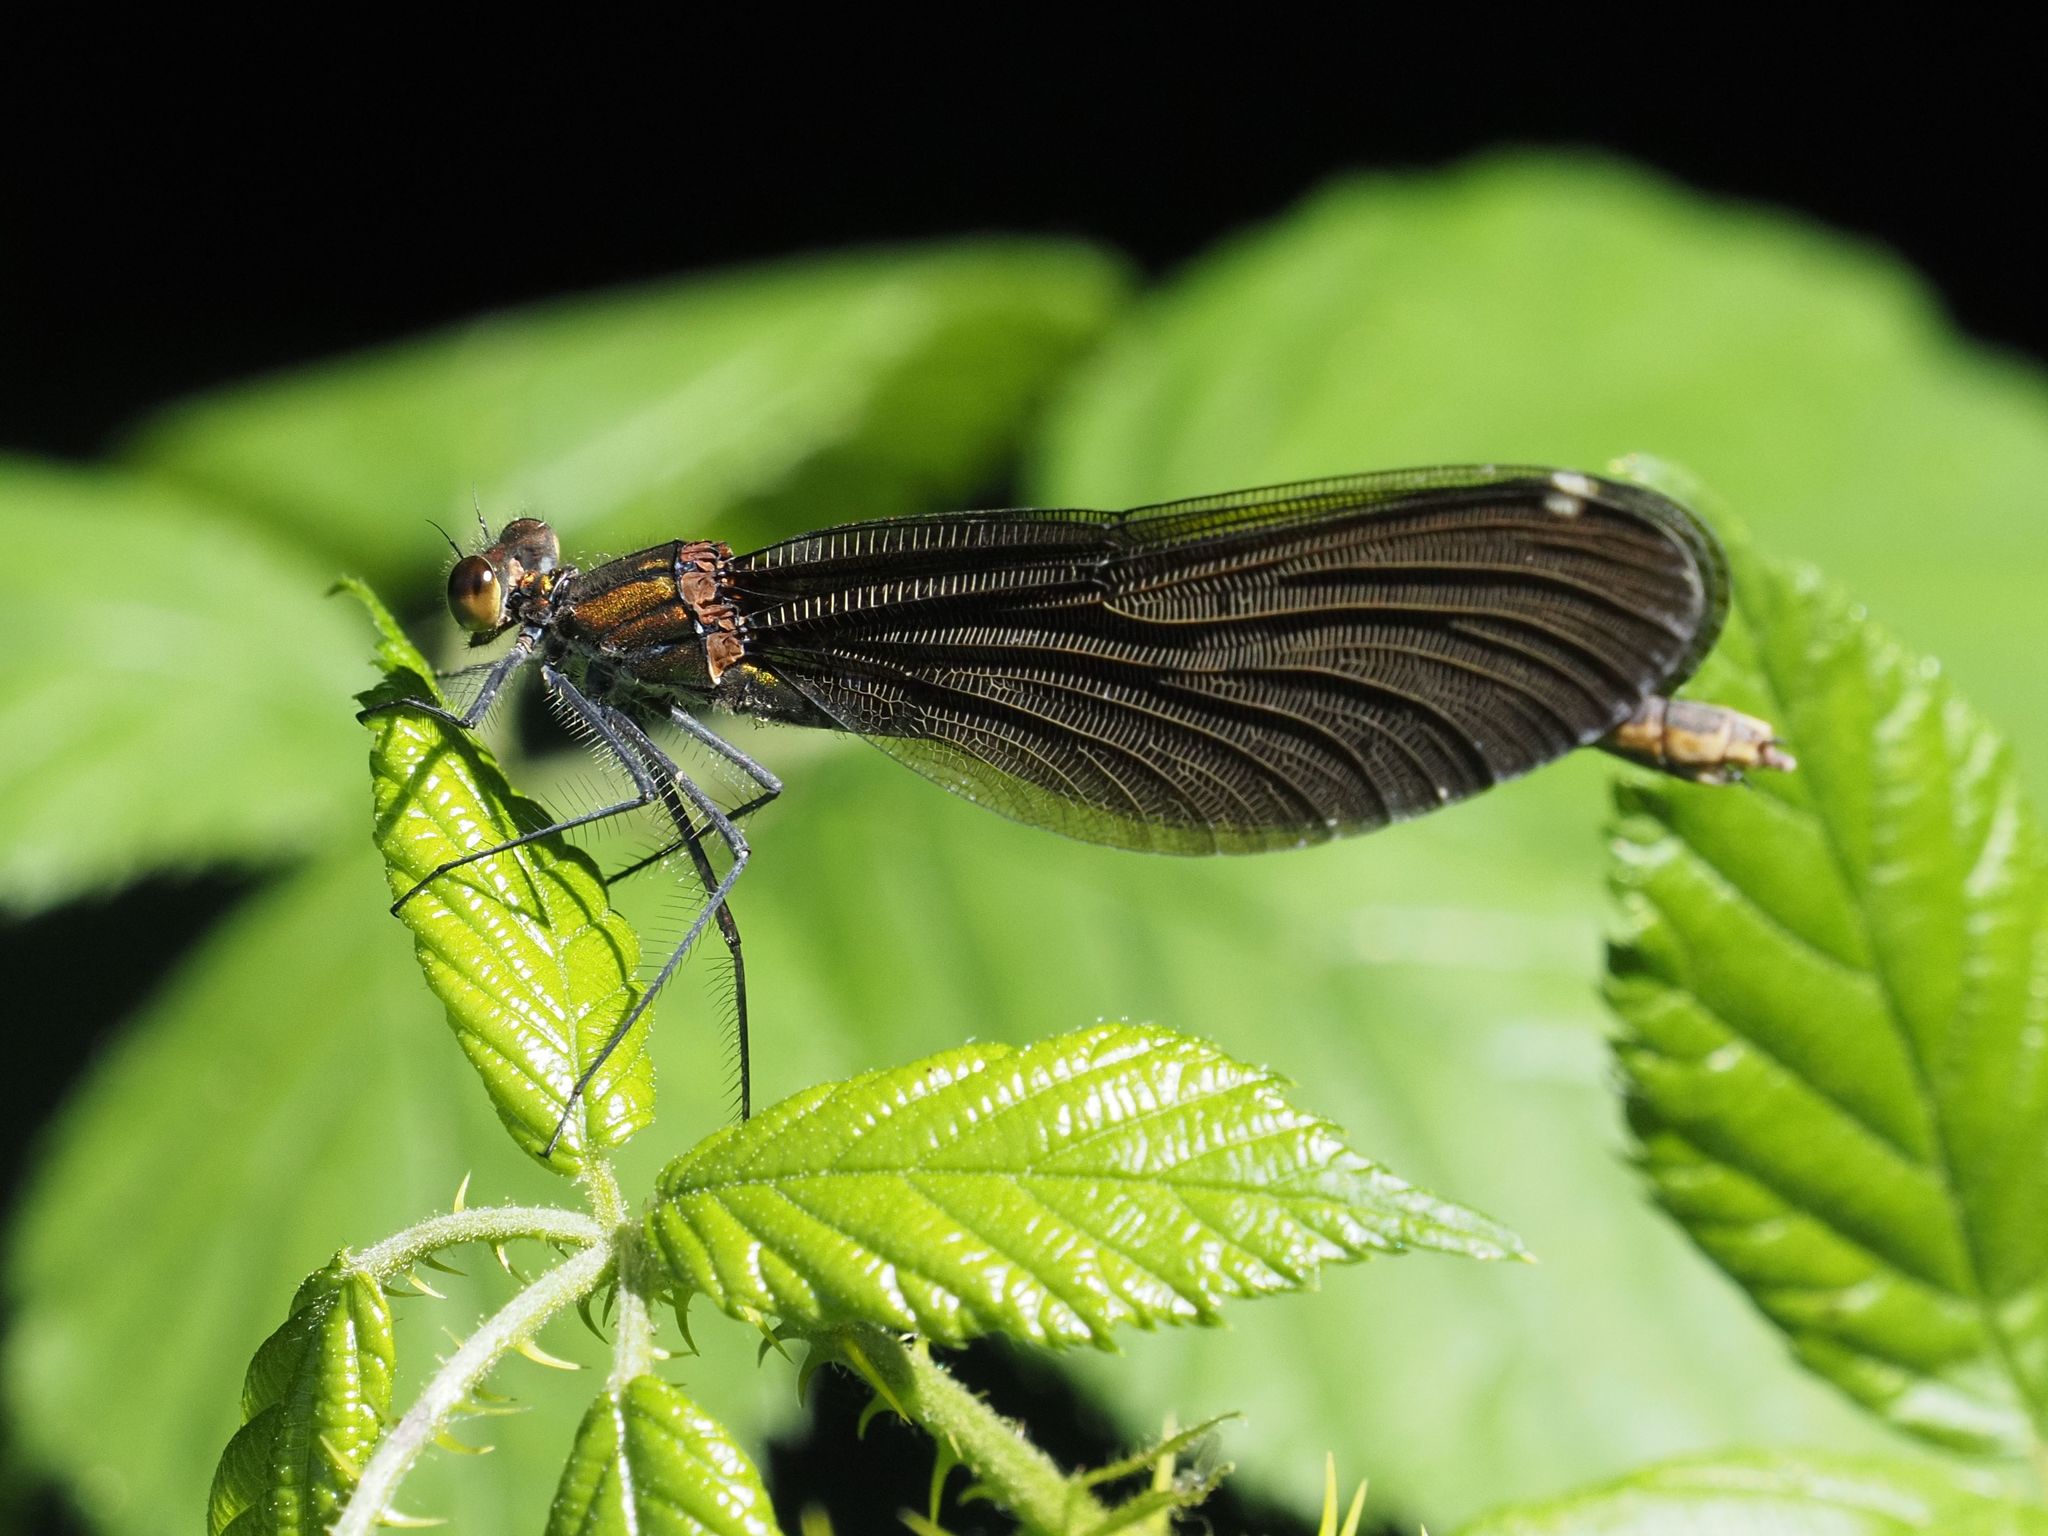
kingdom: Animalia
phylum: Arthropoda
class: Insecta
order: Odonata
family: Calopterygidae
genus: Calopteryx
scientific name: Calopteryx virgo
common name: Beautiful demoiselle
